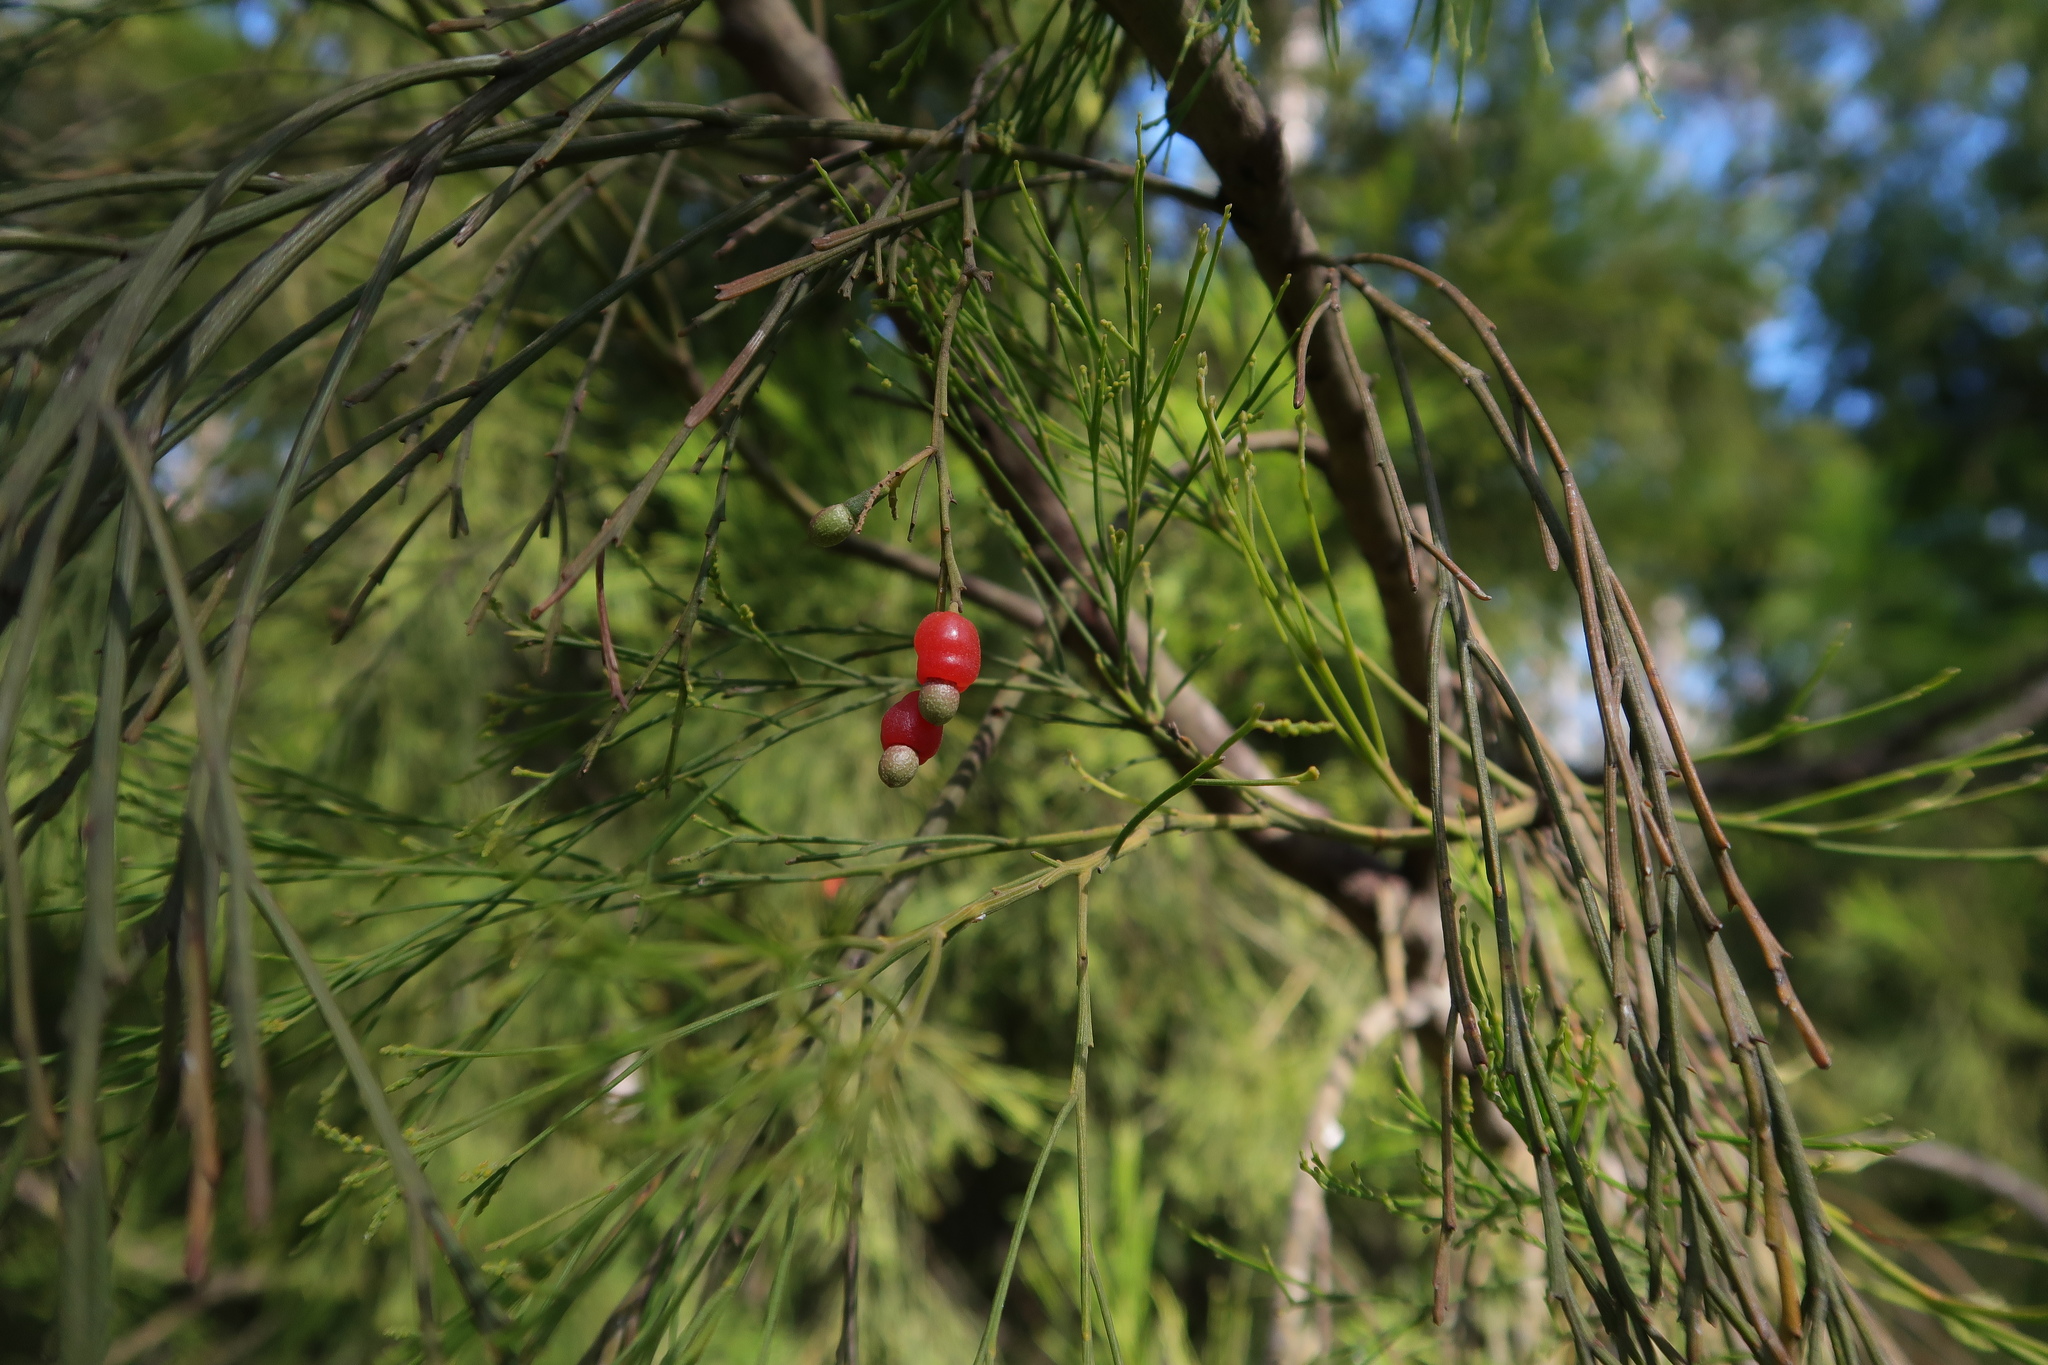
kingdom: Plantae
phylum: Tracheophyta
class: Magnoliopsida
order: Santalales
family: Santalaceae
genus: Exocarpos
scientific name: Exocarpos cupressiformis
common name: Cherry ballart
